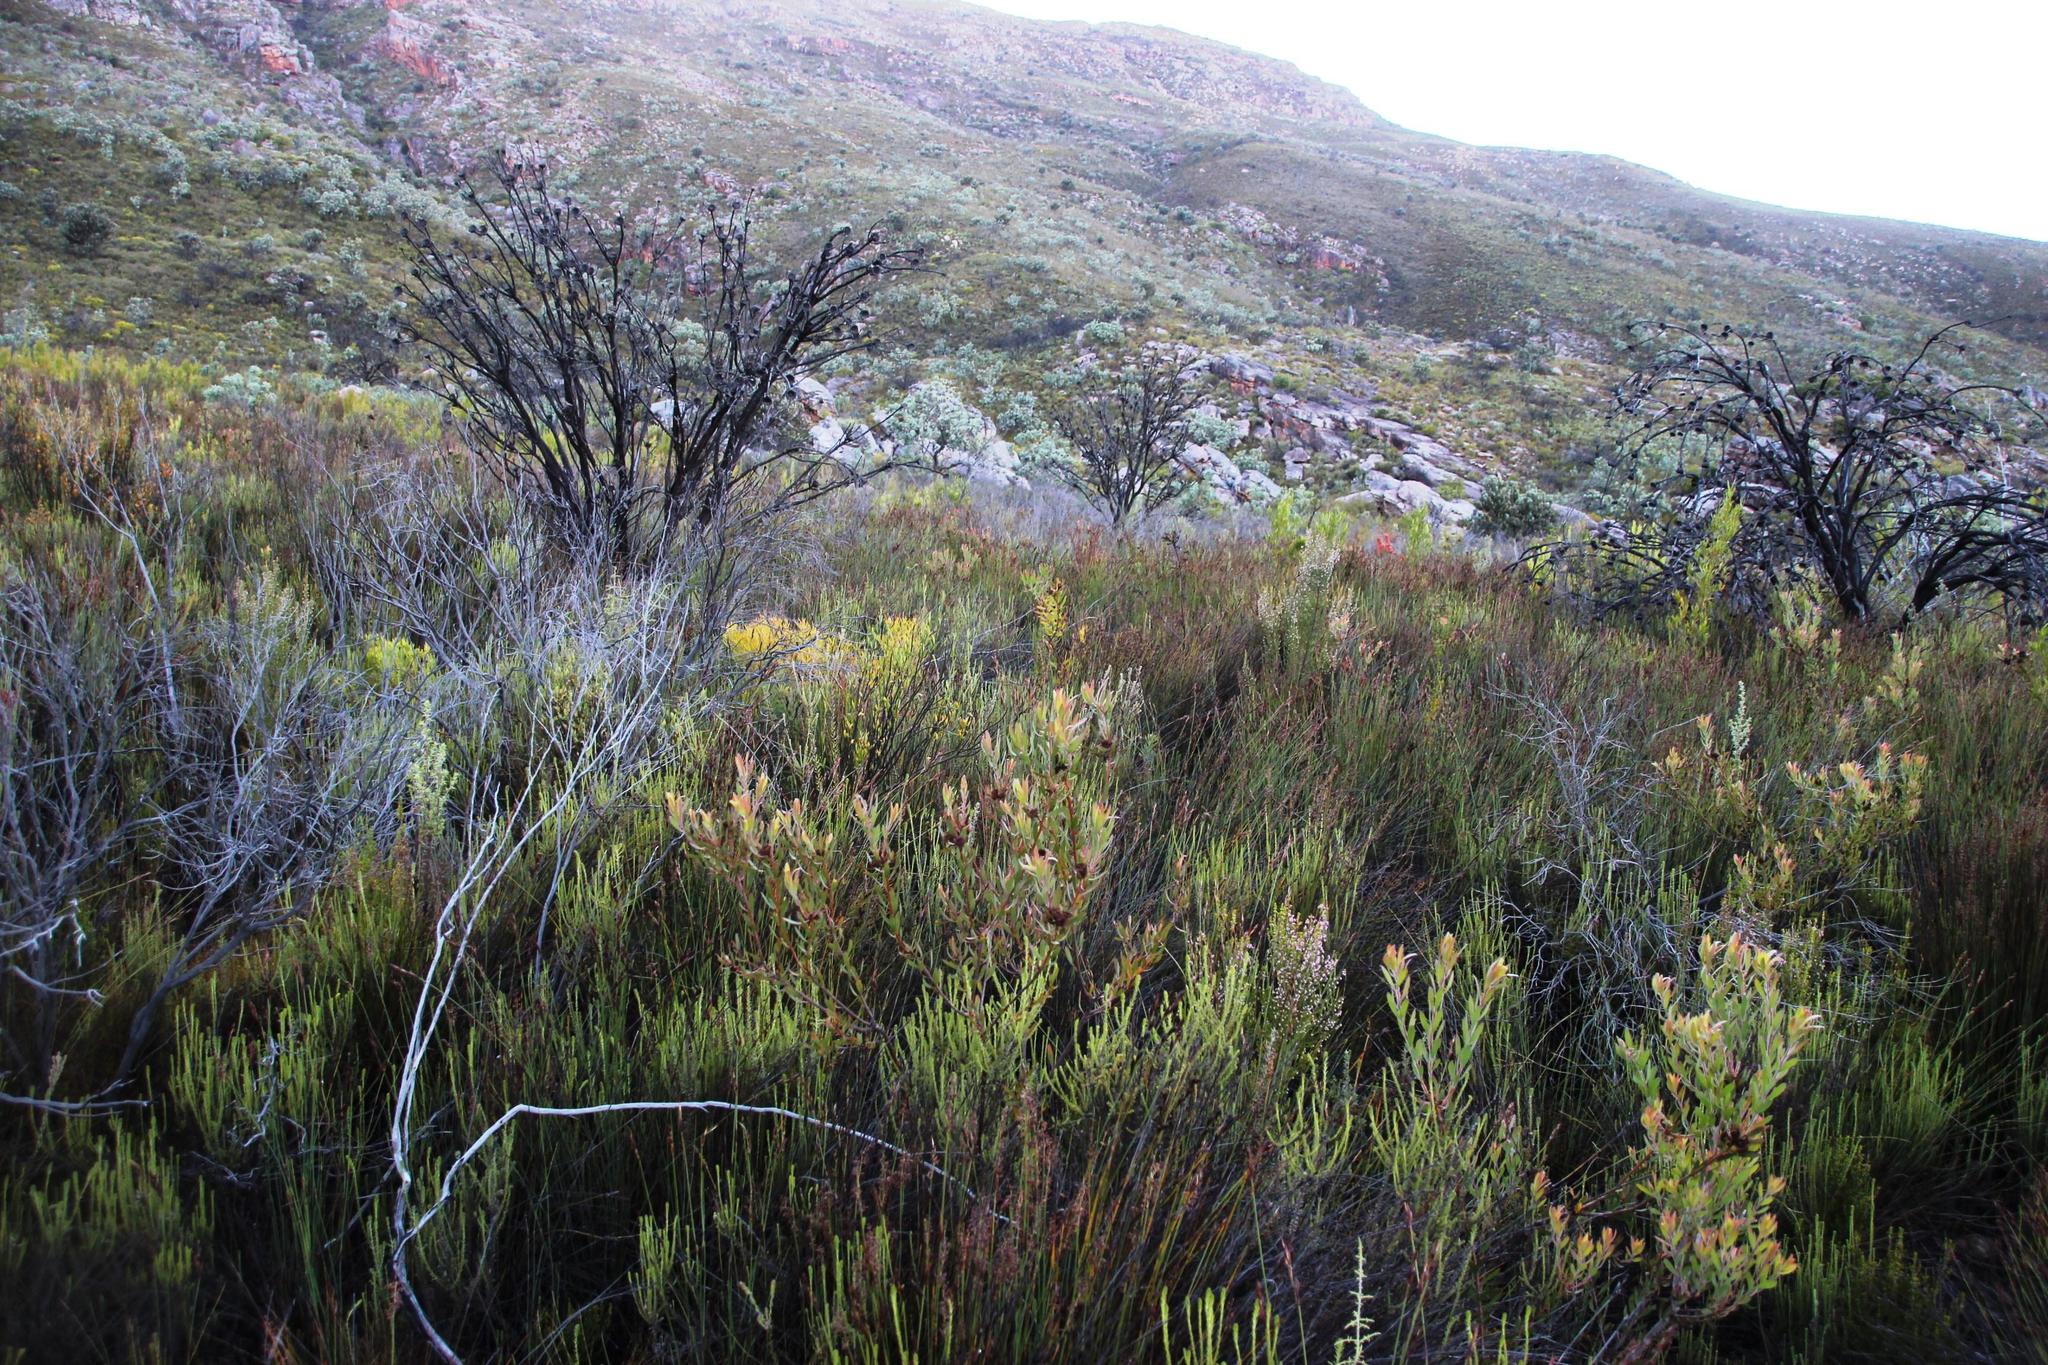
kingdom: Plantae
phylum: Tracheophyta
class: Magnoliopsida
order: Proteales
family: Proteaceae
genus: Leucadendron
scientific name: Leucadendron glaberrimum
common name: Common oily conebush
